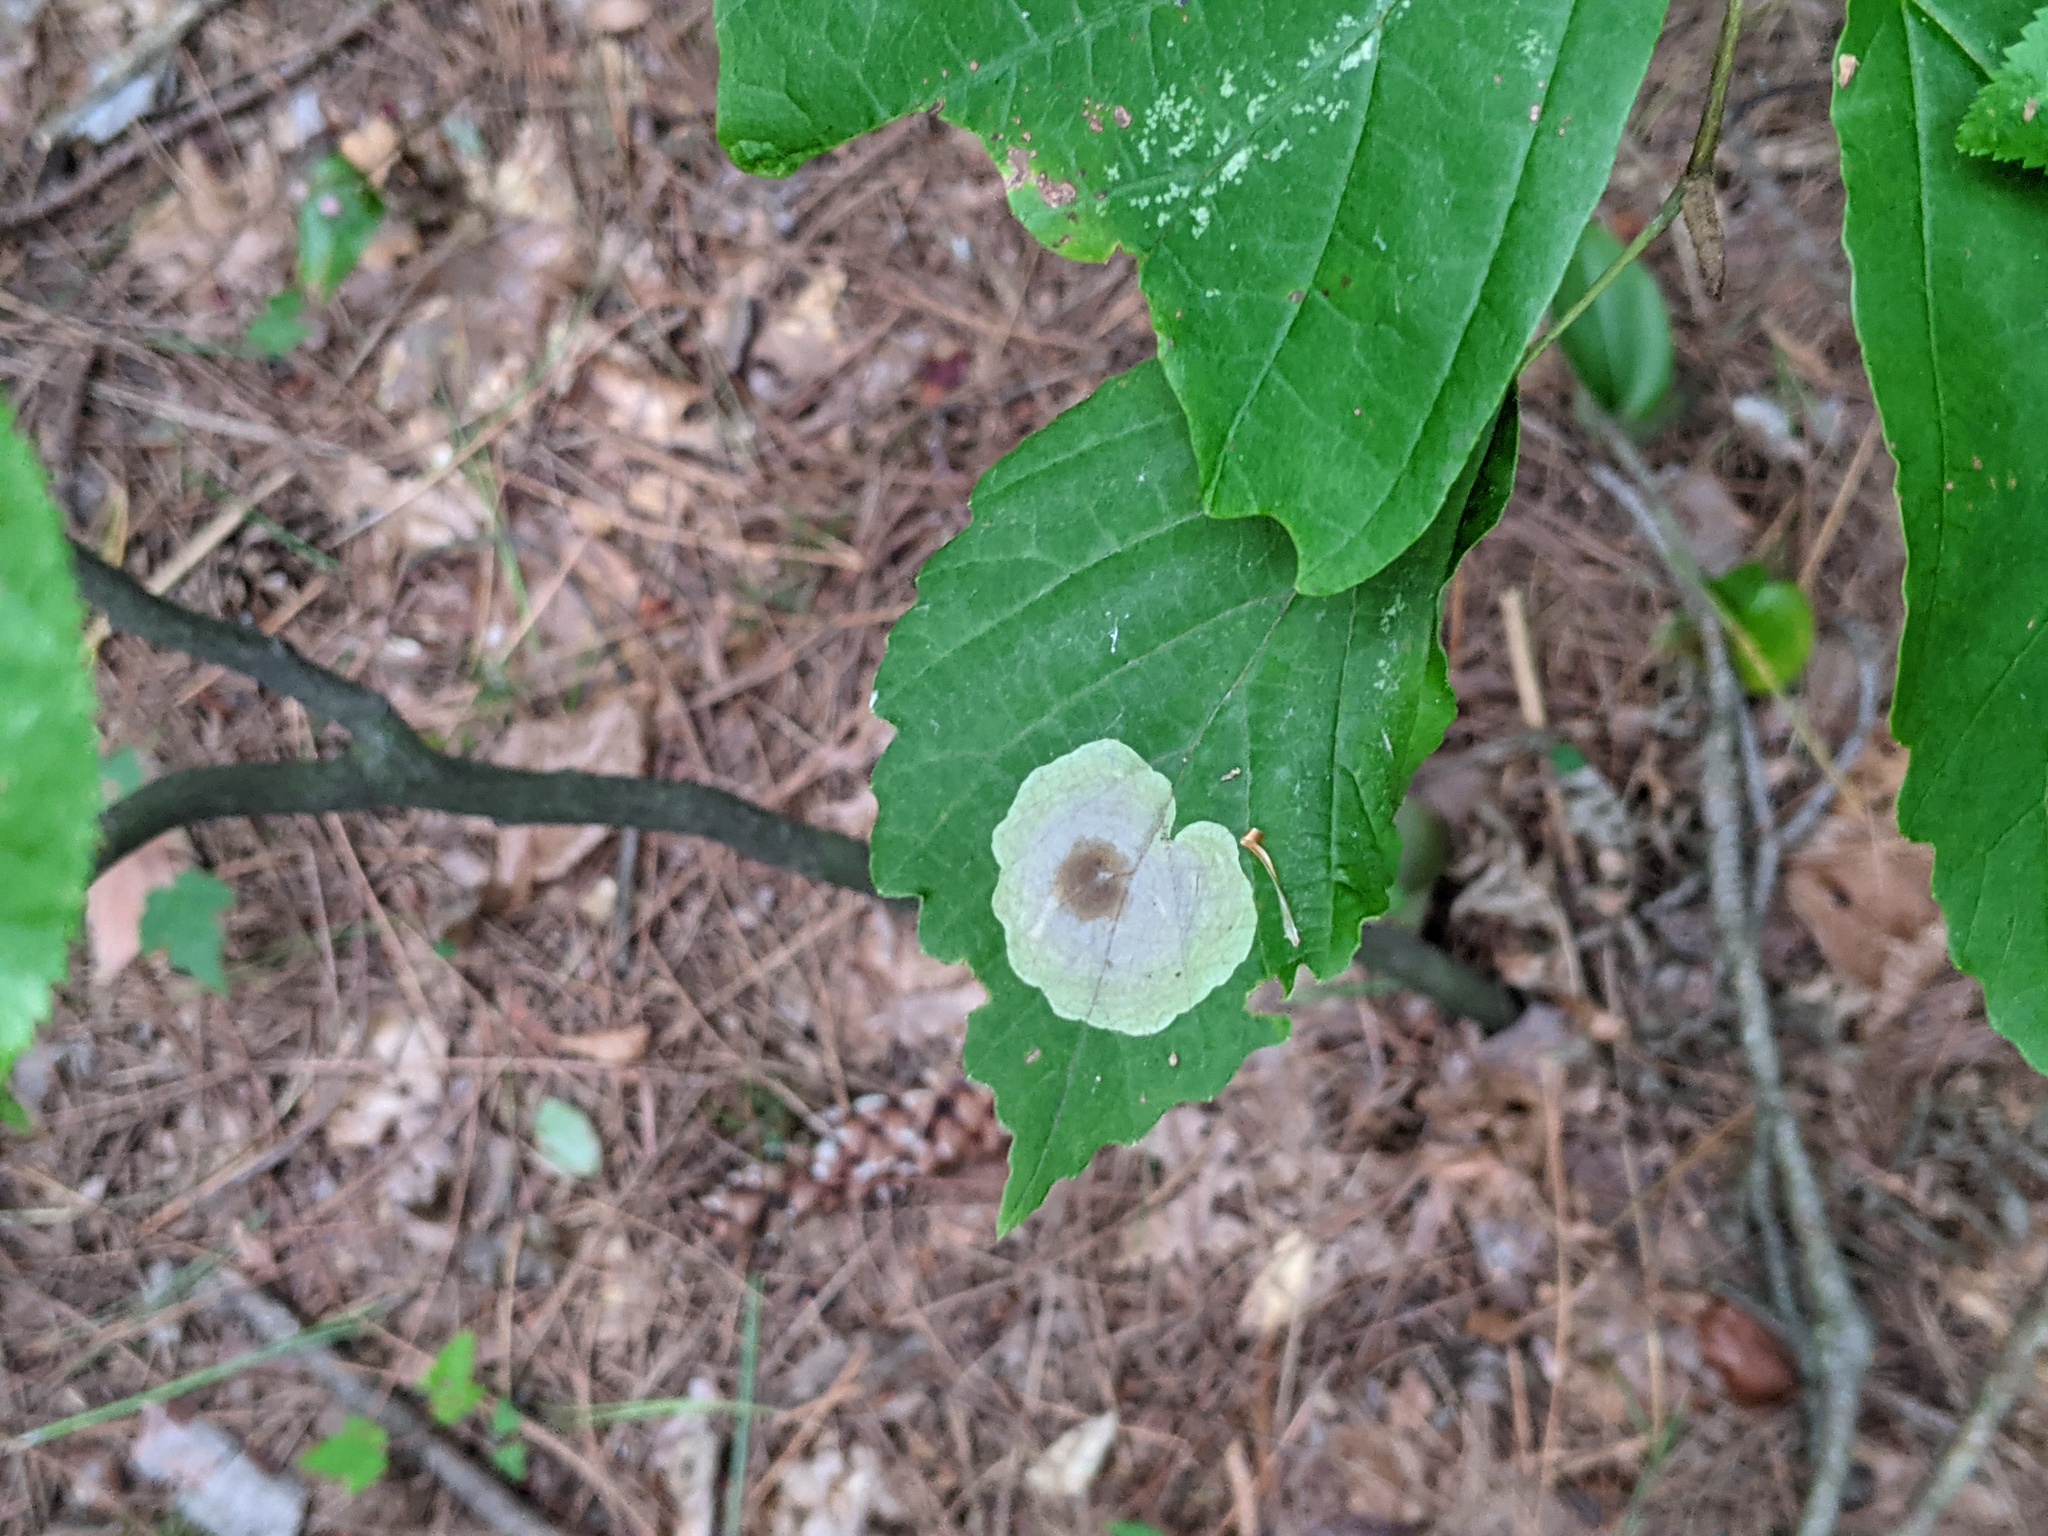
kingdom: Animalia
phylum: Arthropoda
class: Insecta
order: Lepidoptera
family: Gracillariidae
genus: Cameraria
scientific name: Cameraria hamameliella
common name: Witchhazel leafminer
